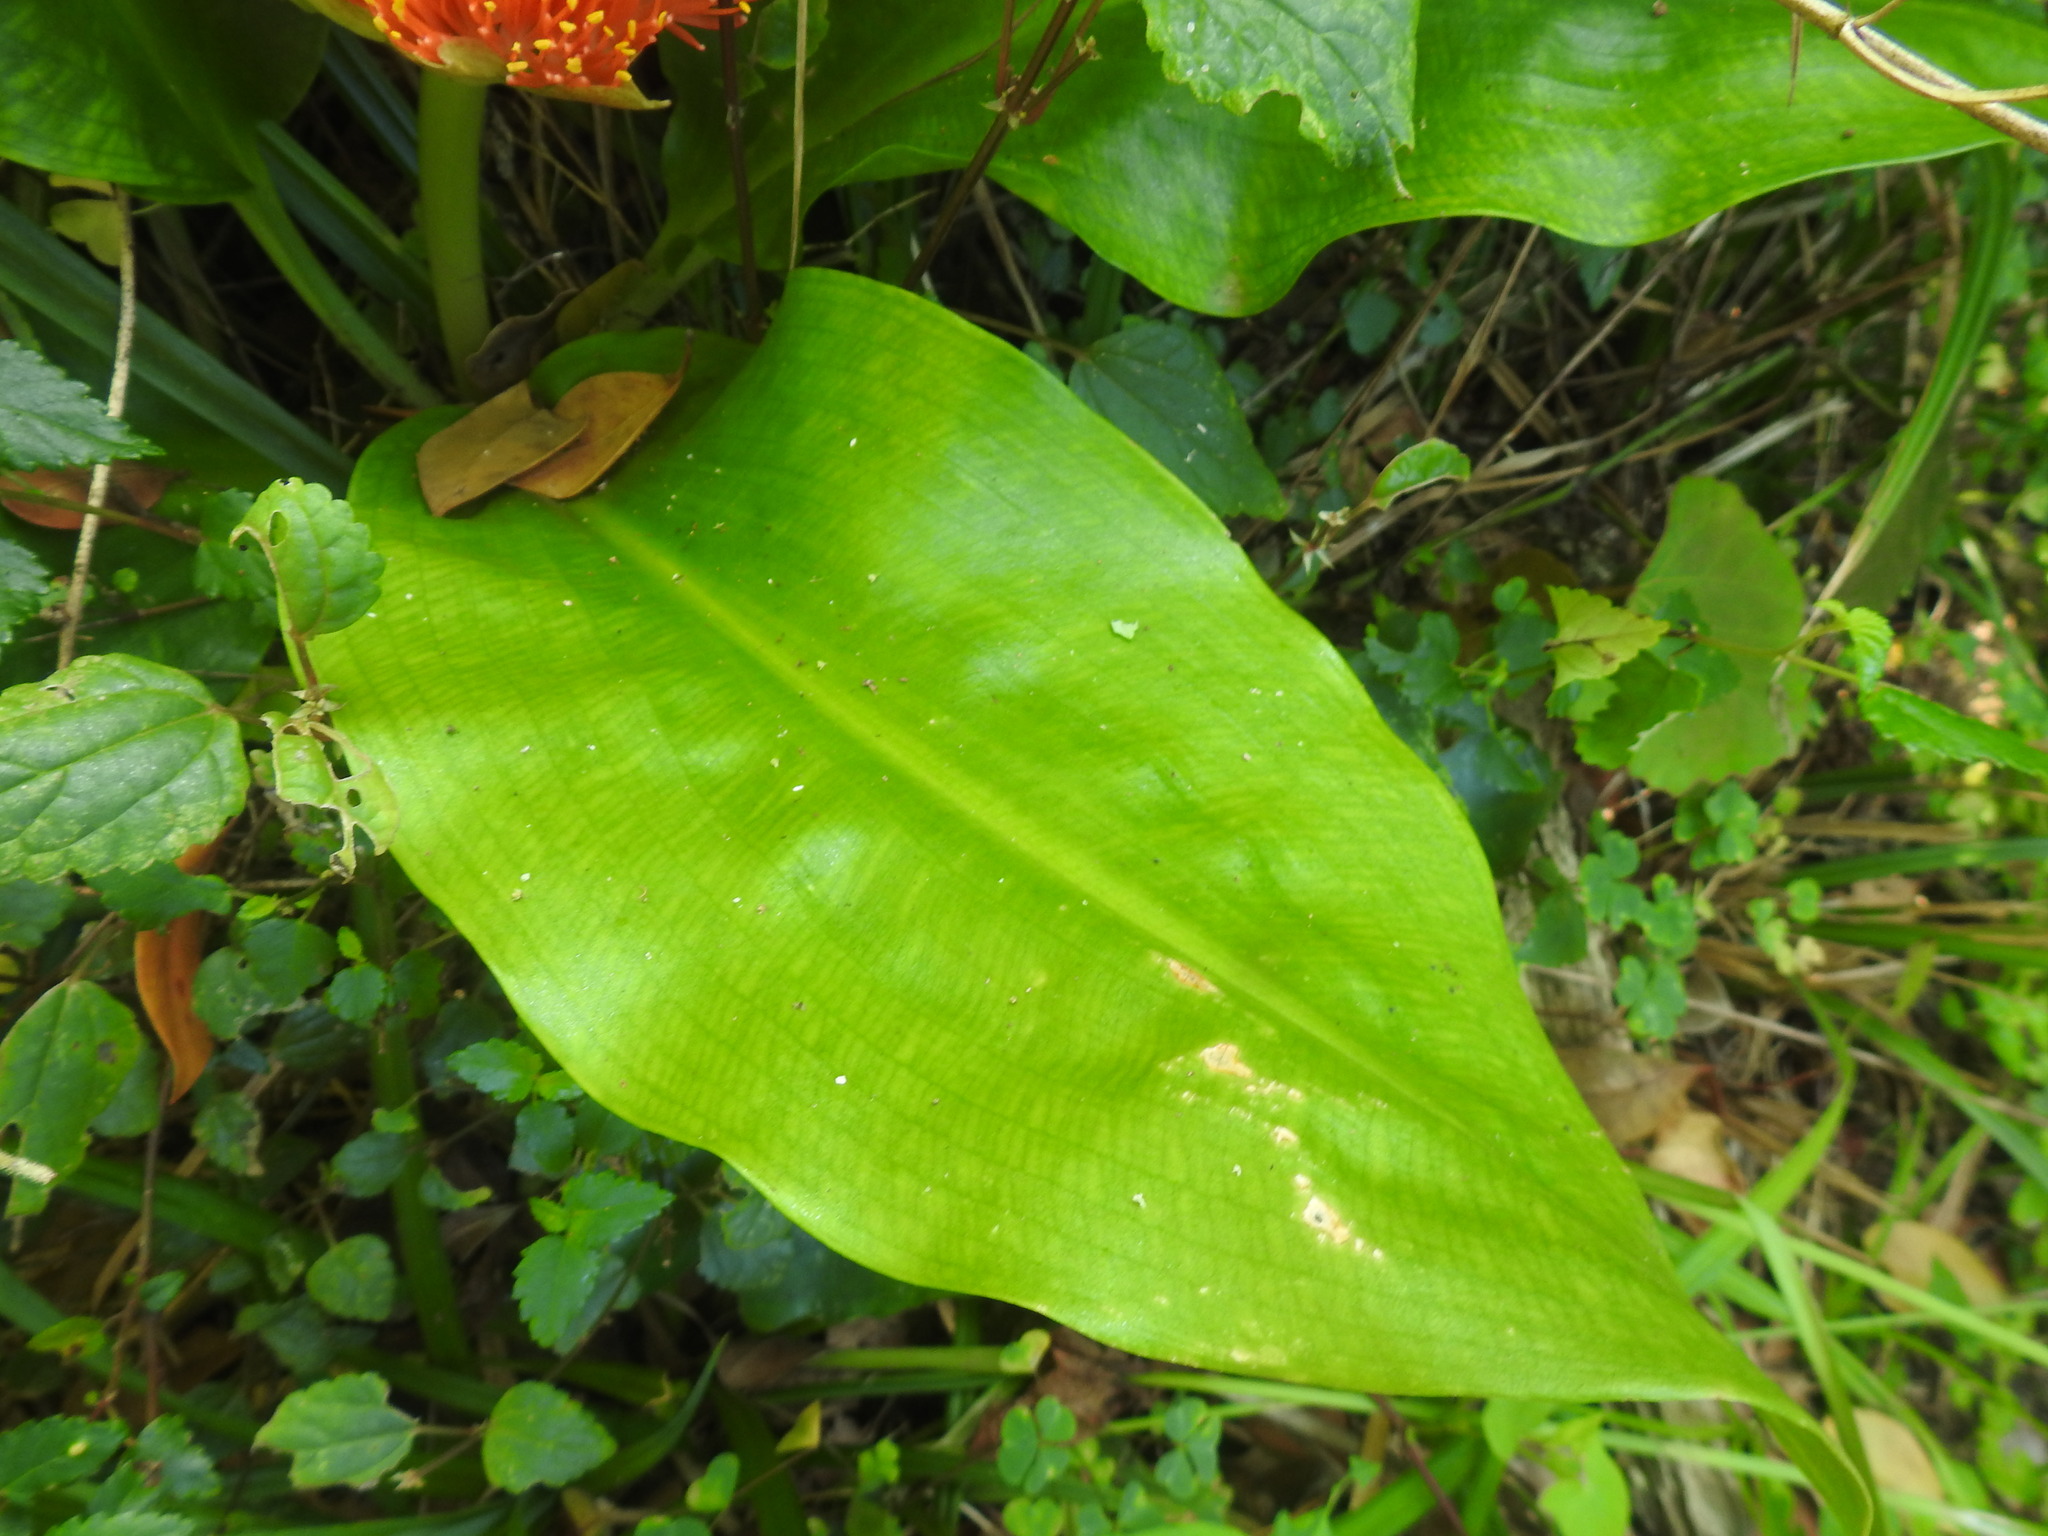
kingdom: Plantae
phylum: Tracheophyta
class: Liliopsida
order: Asparagales
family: Amaryllidaceae
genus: Scadoxus
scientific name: Scadoxus puniceus
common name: Royal-paintbrush
